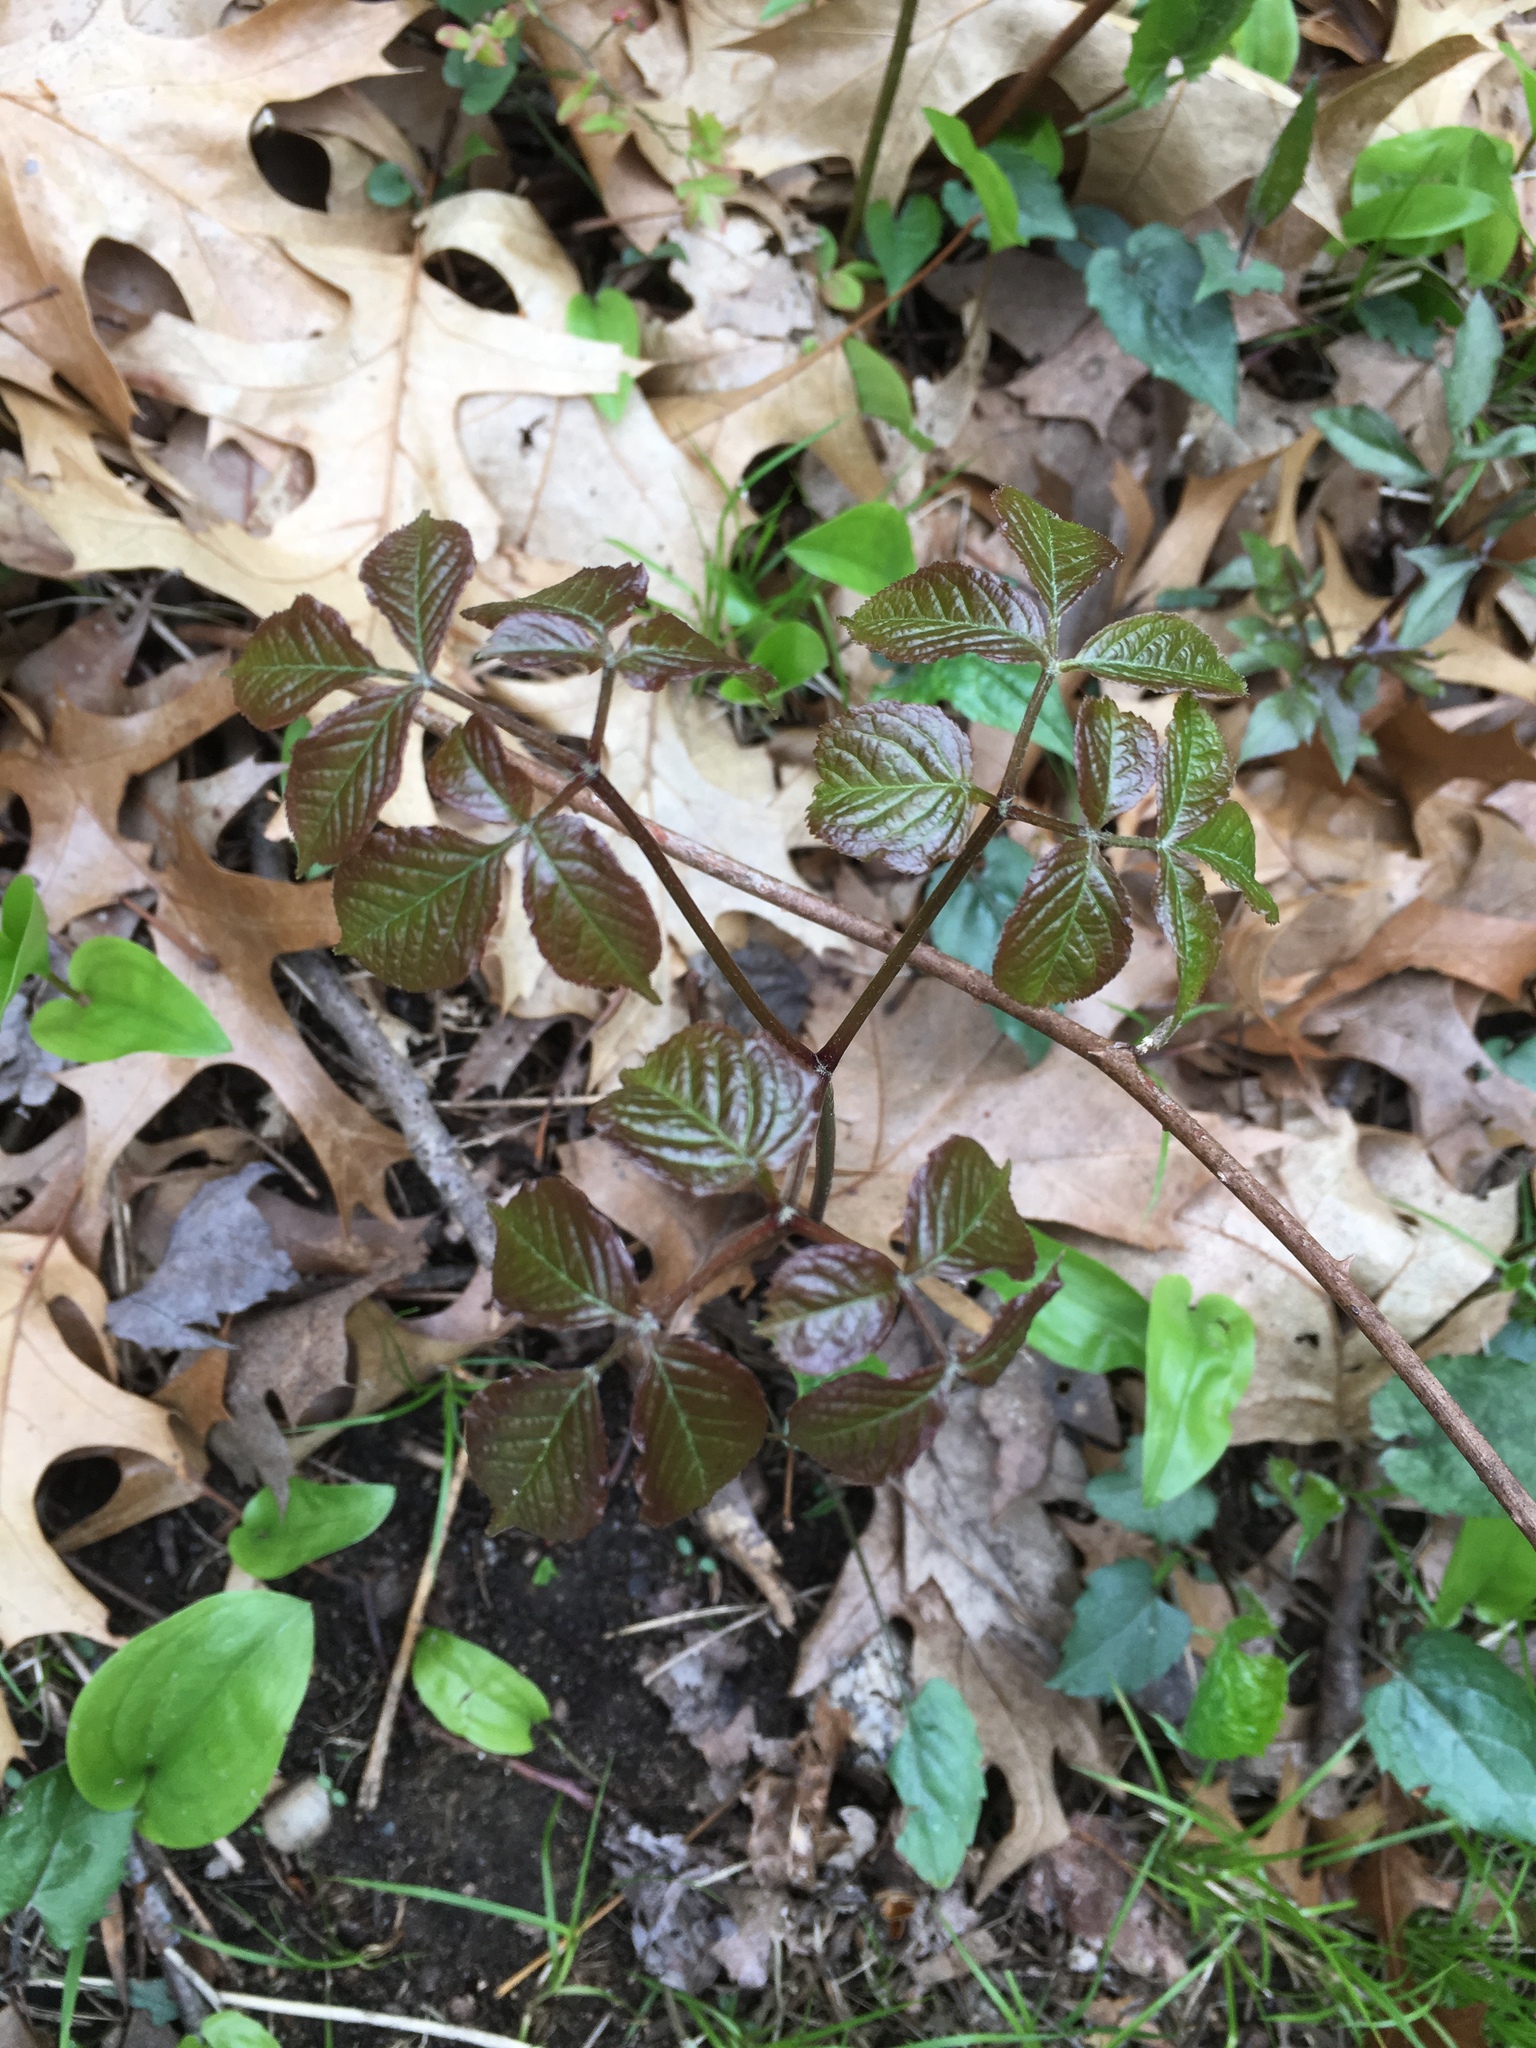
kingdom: Plantae
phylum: Tracheophyta
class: Magnoliopsida
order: Apiales
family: Araliaceae
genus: Aralia
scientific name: Aralia nudicaulis
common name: Wild sarsaparilla
